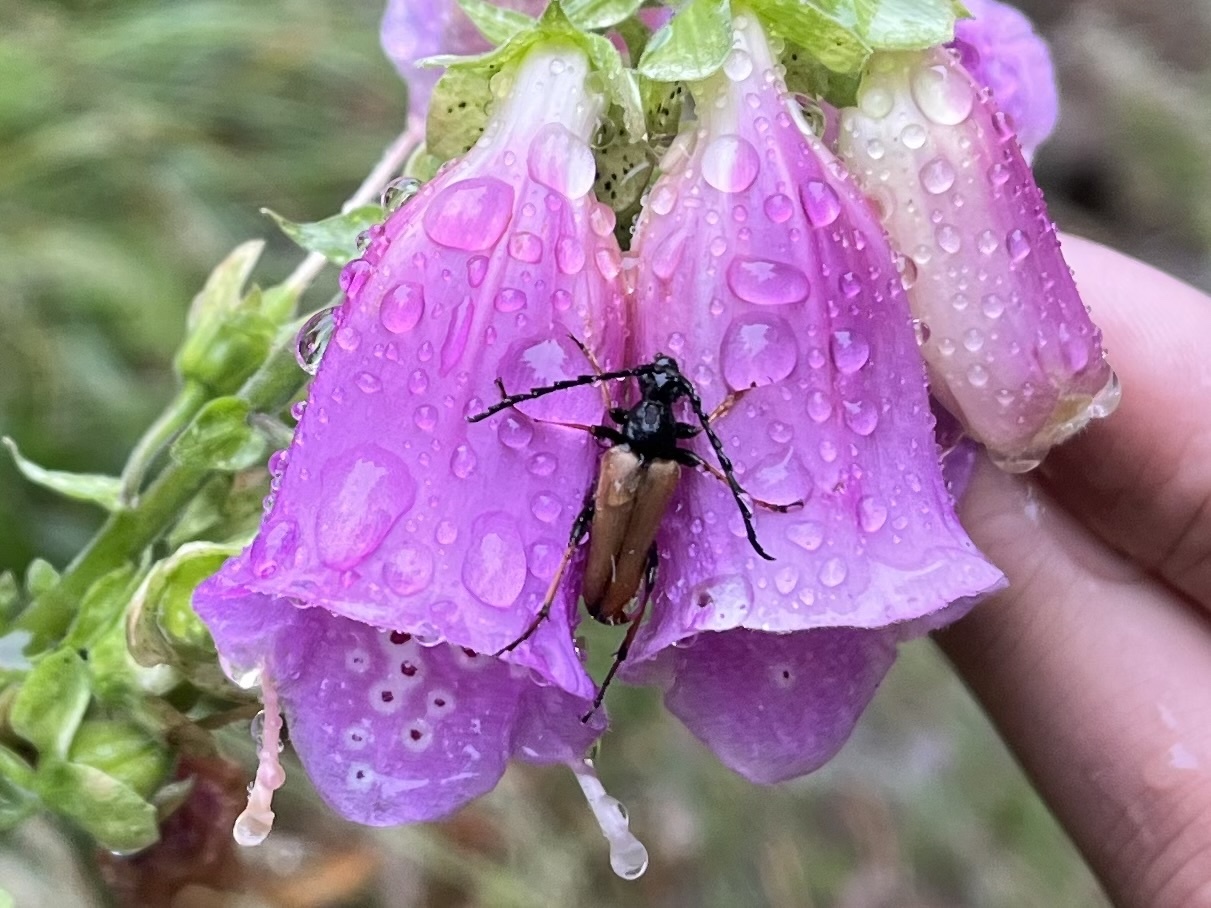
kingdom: Animalia
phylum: Arthropoda
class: Insecta
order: Coleoptera
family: Cerambycidae
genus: Stictoleptura
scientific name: Stictoleptura rubra
